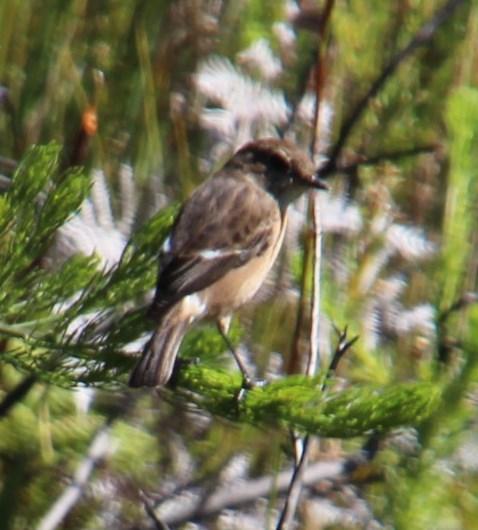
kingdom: Animalia
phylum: Chordata
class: Aves
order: Passeriformes
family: Muscicapidae
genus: Saxicola
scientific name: Saxicola torquatus
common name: African stonechat
